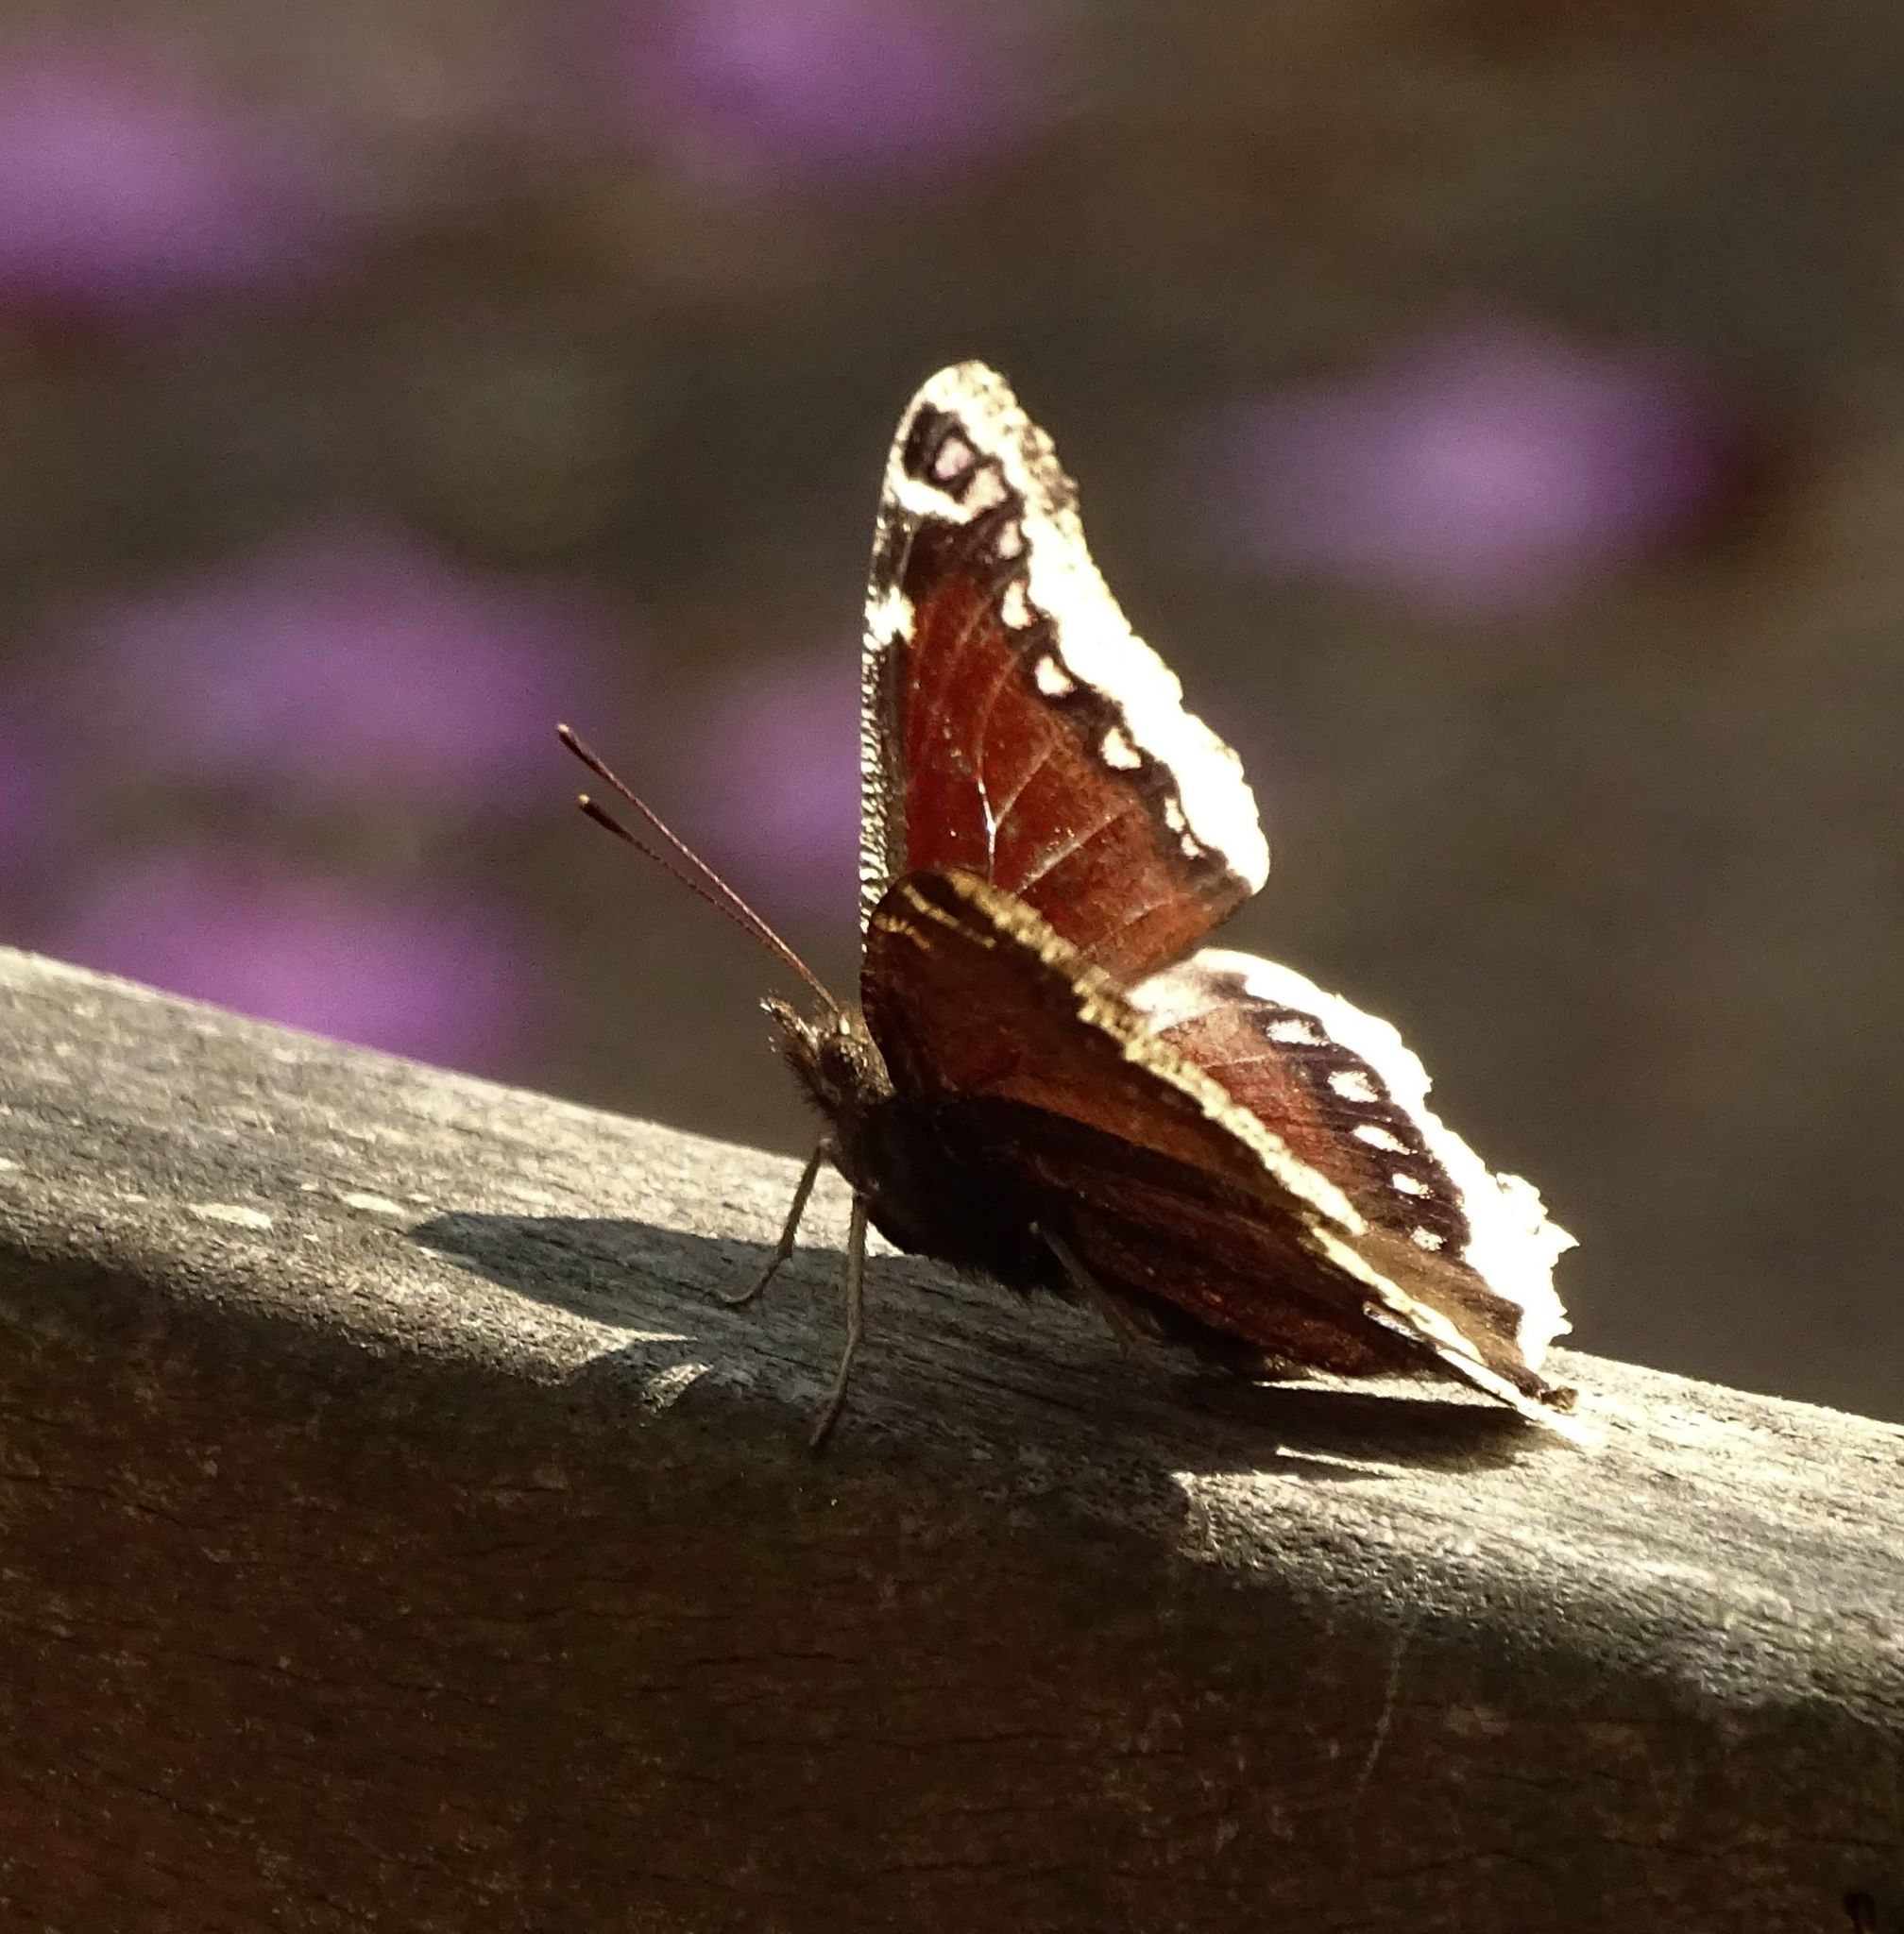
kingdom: Animalia
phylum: Arthropoda
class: Insecta
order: Lepidoptera
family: Nymphalidae
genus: Nymphalis
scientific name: Nymphalis antiopa
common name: Camberwell beauty
